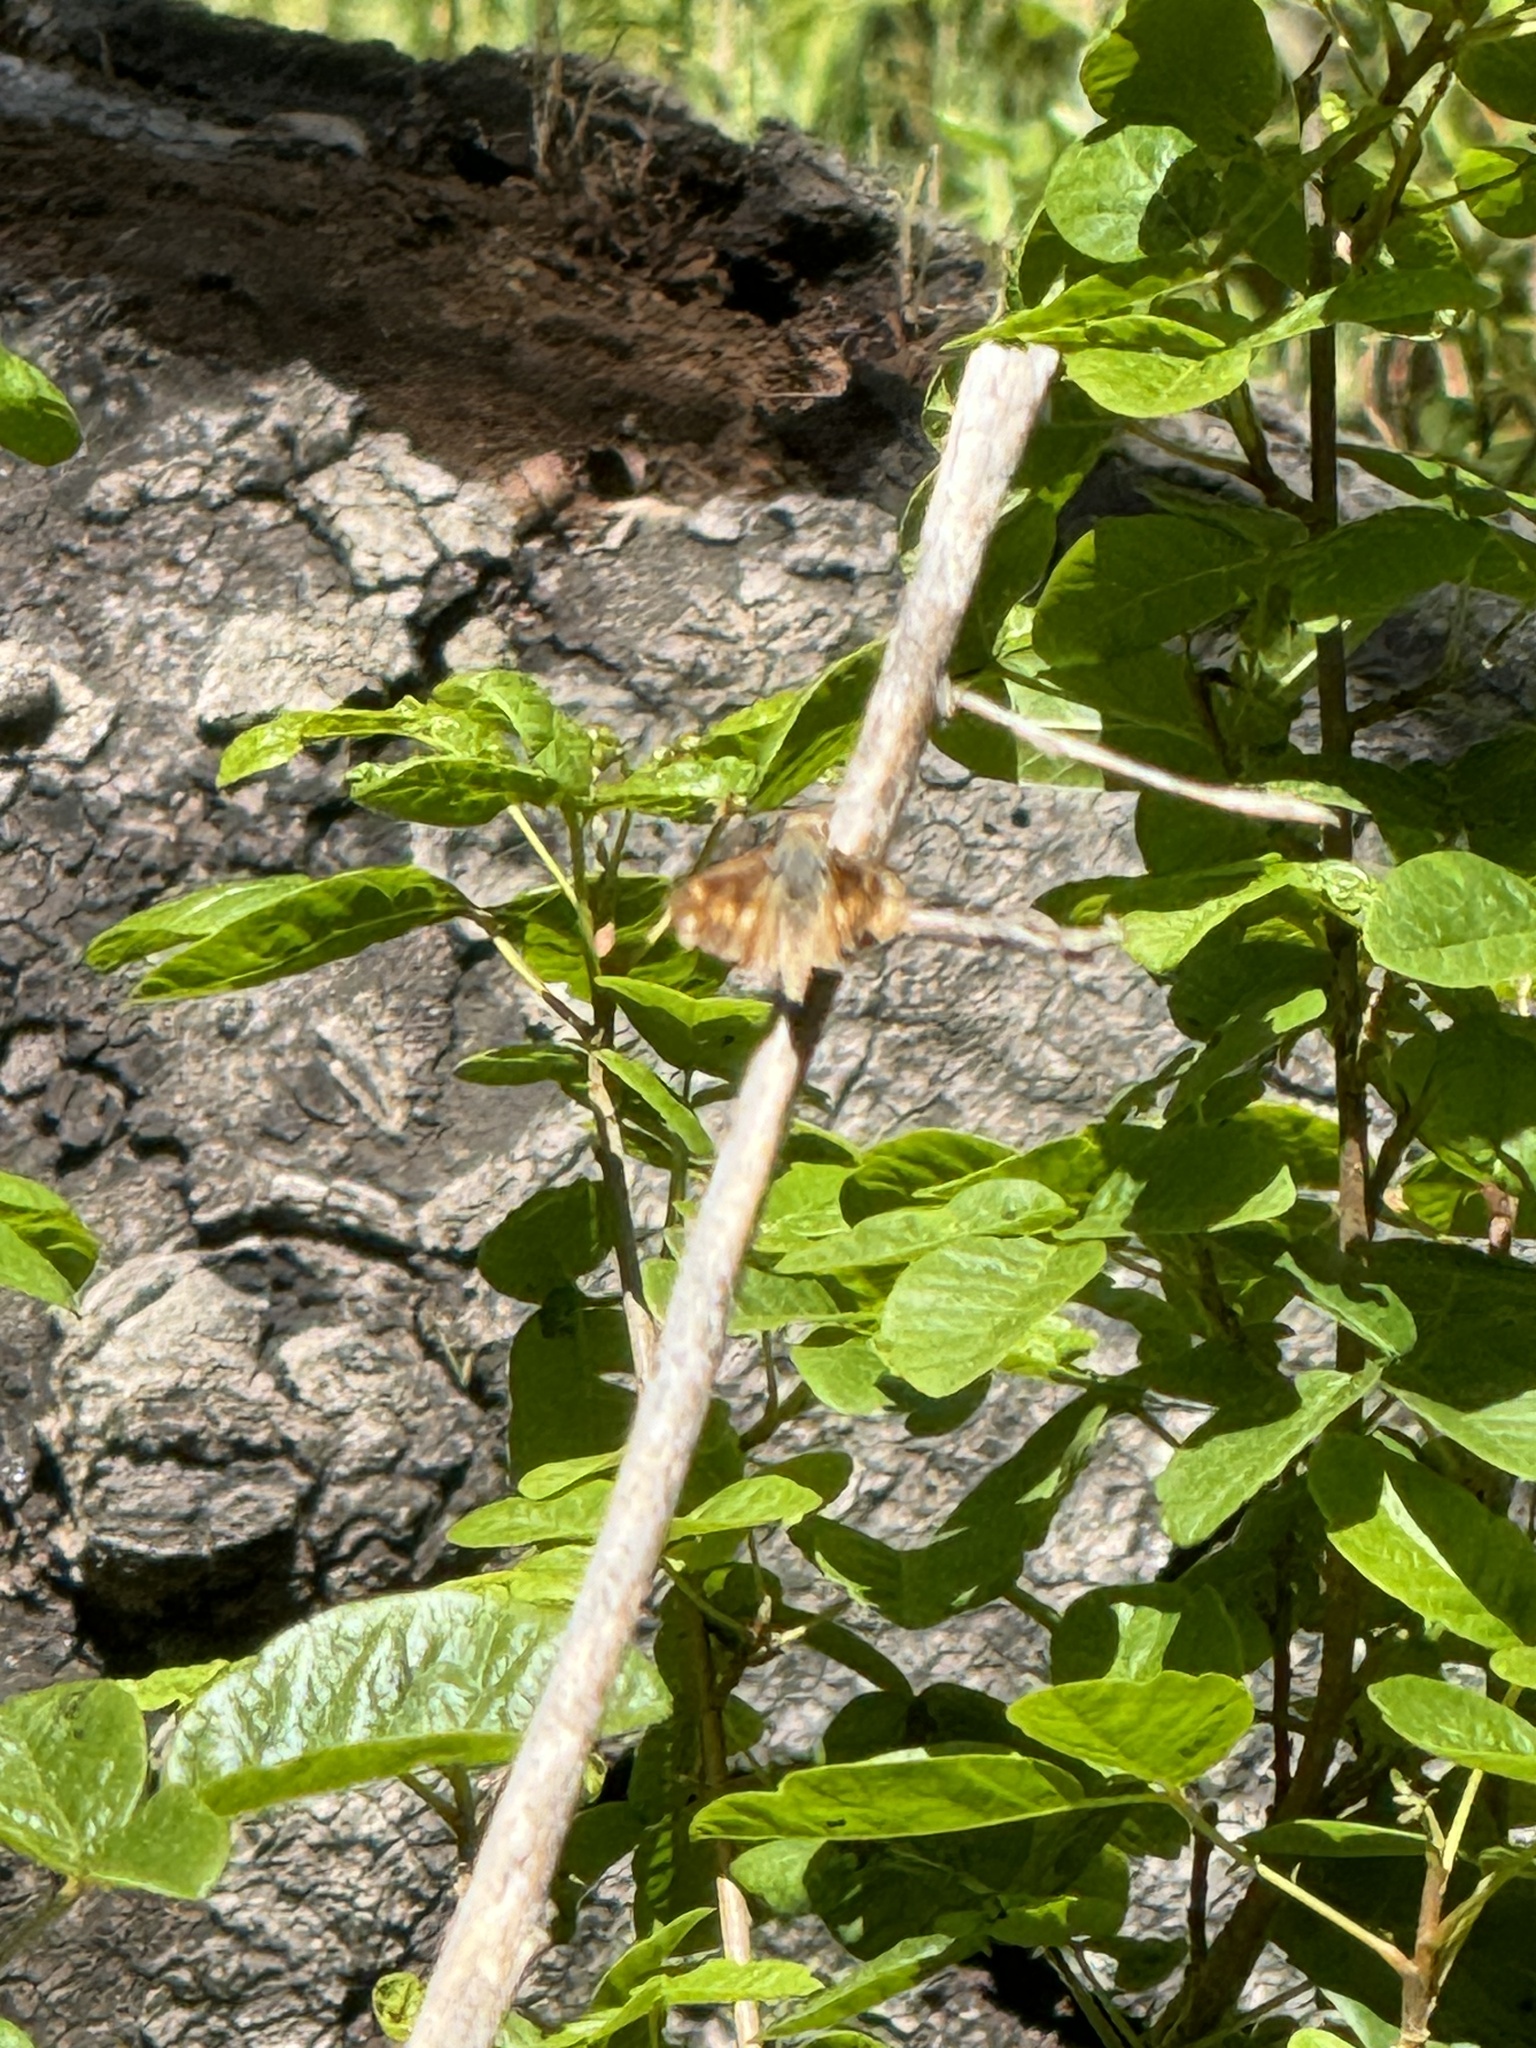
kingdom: Animalia
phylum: Arthropoda
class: Insecta
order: Lepidoptera
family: Hesperiidae
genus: Lon
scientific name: Lon melane
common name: Umber skipper
